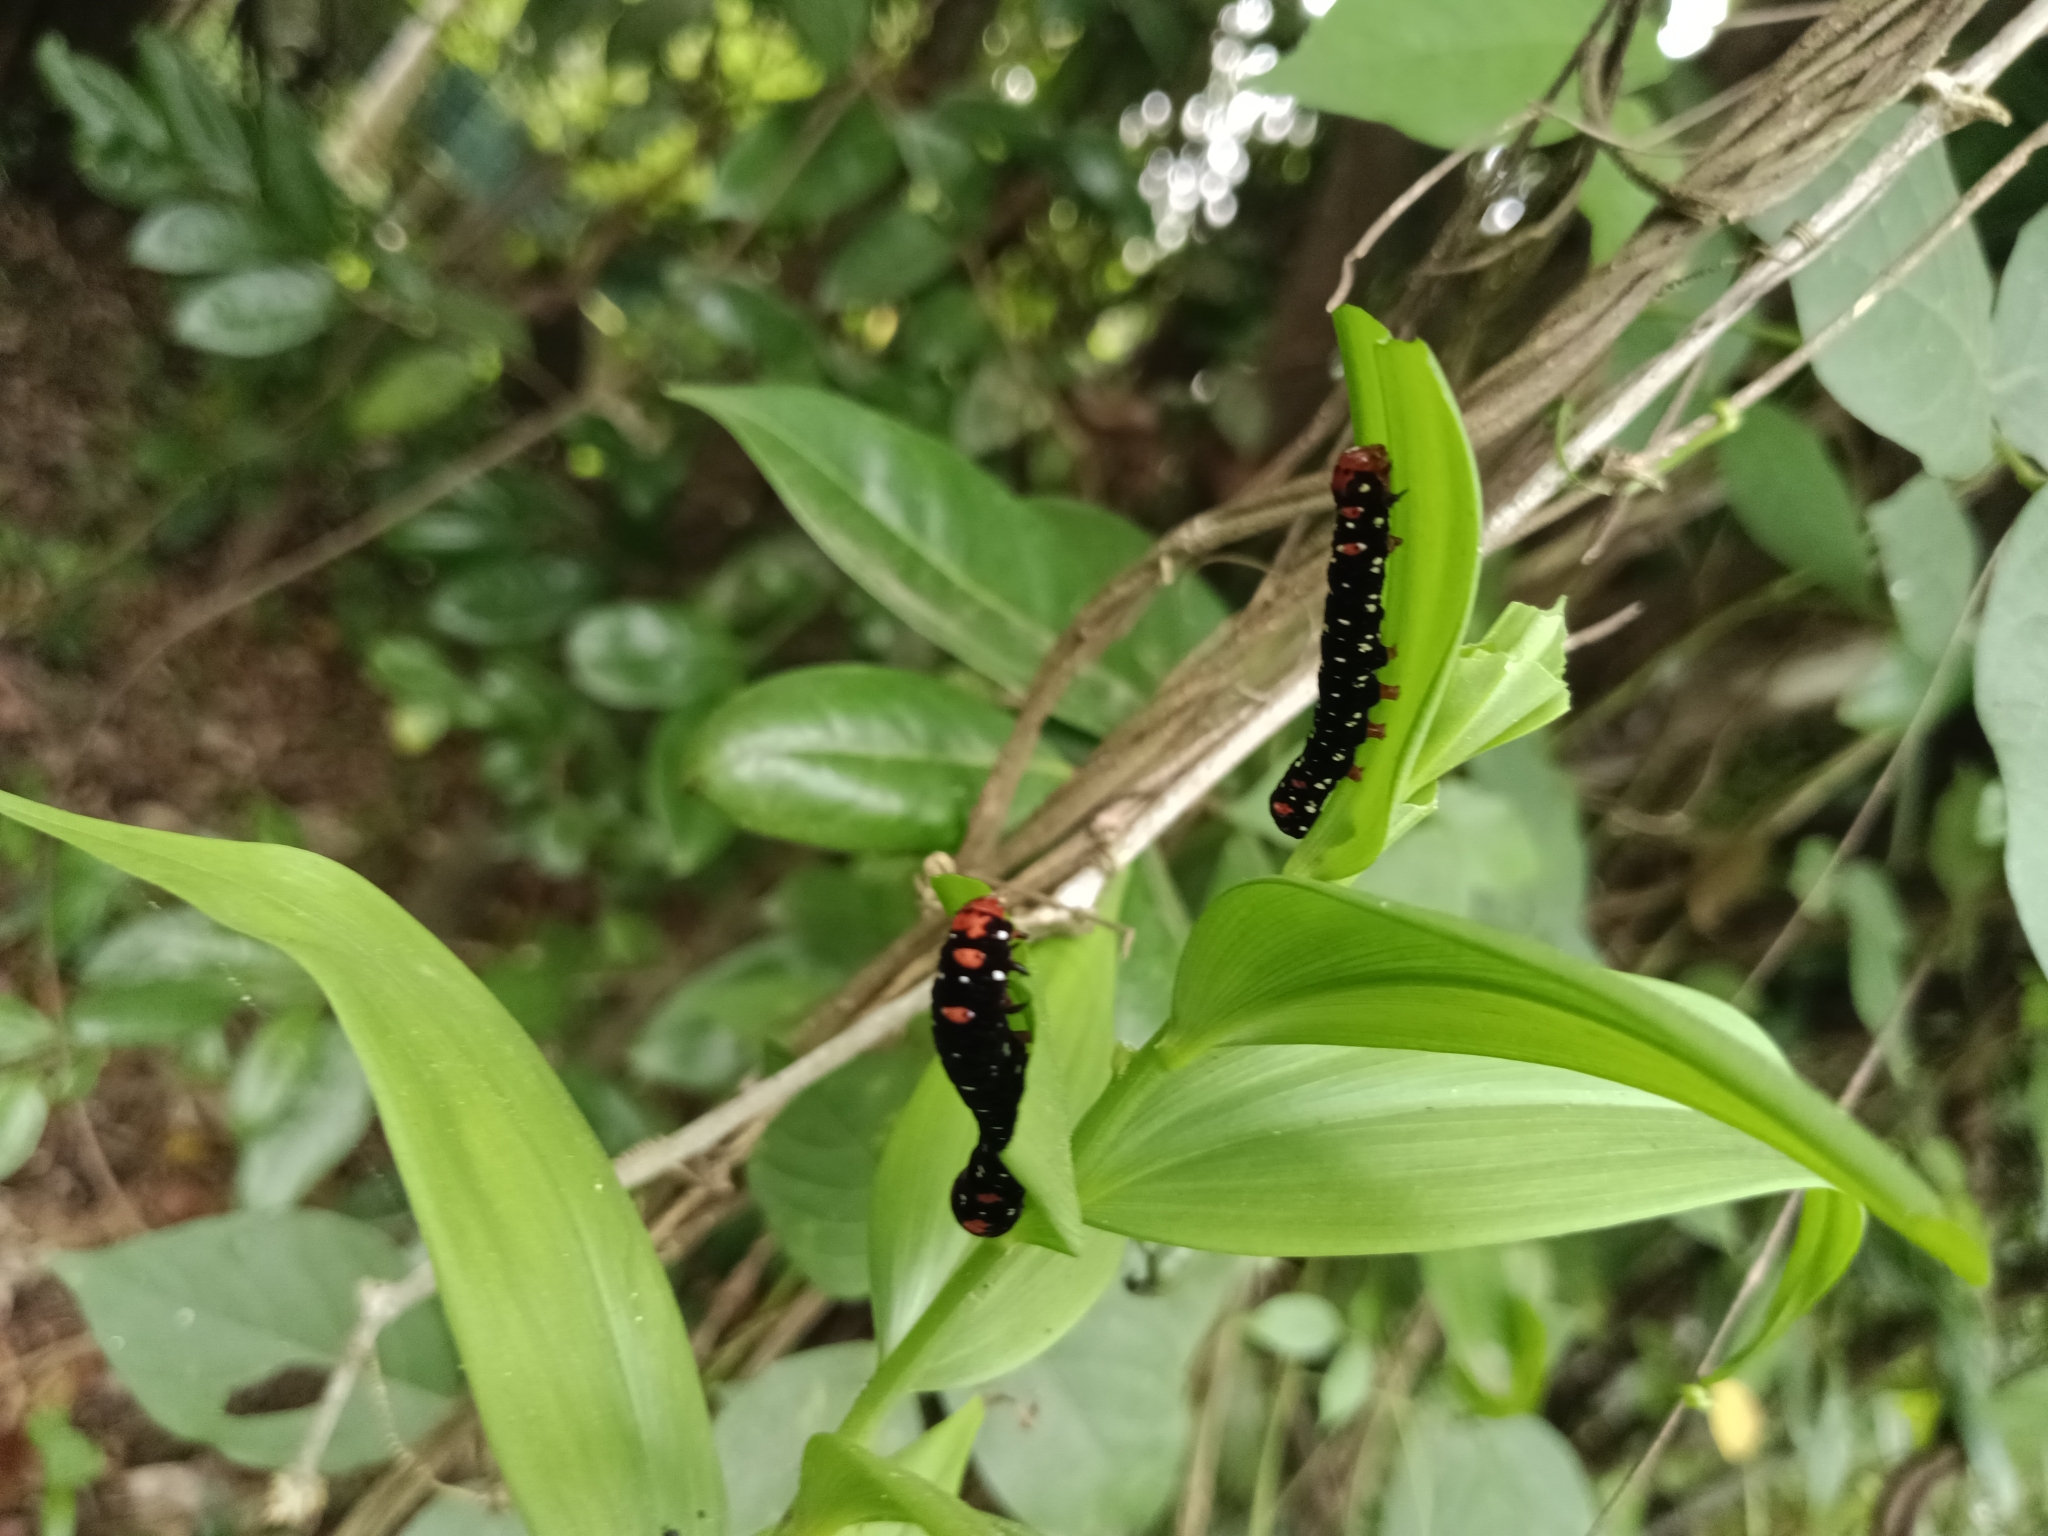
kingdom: Animalia
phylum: Arthropoda
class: Insecta
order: Lepidoptera
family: Noctuidae
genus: Polytela
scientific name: Polytela gloriosae
